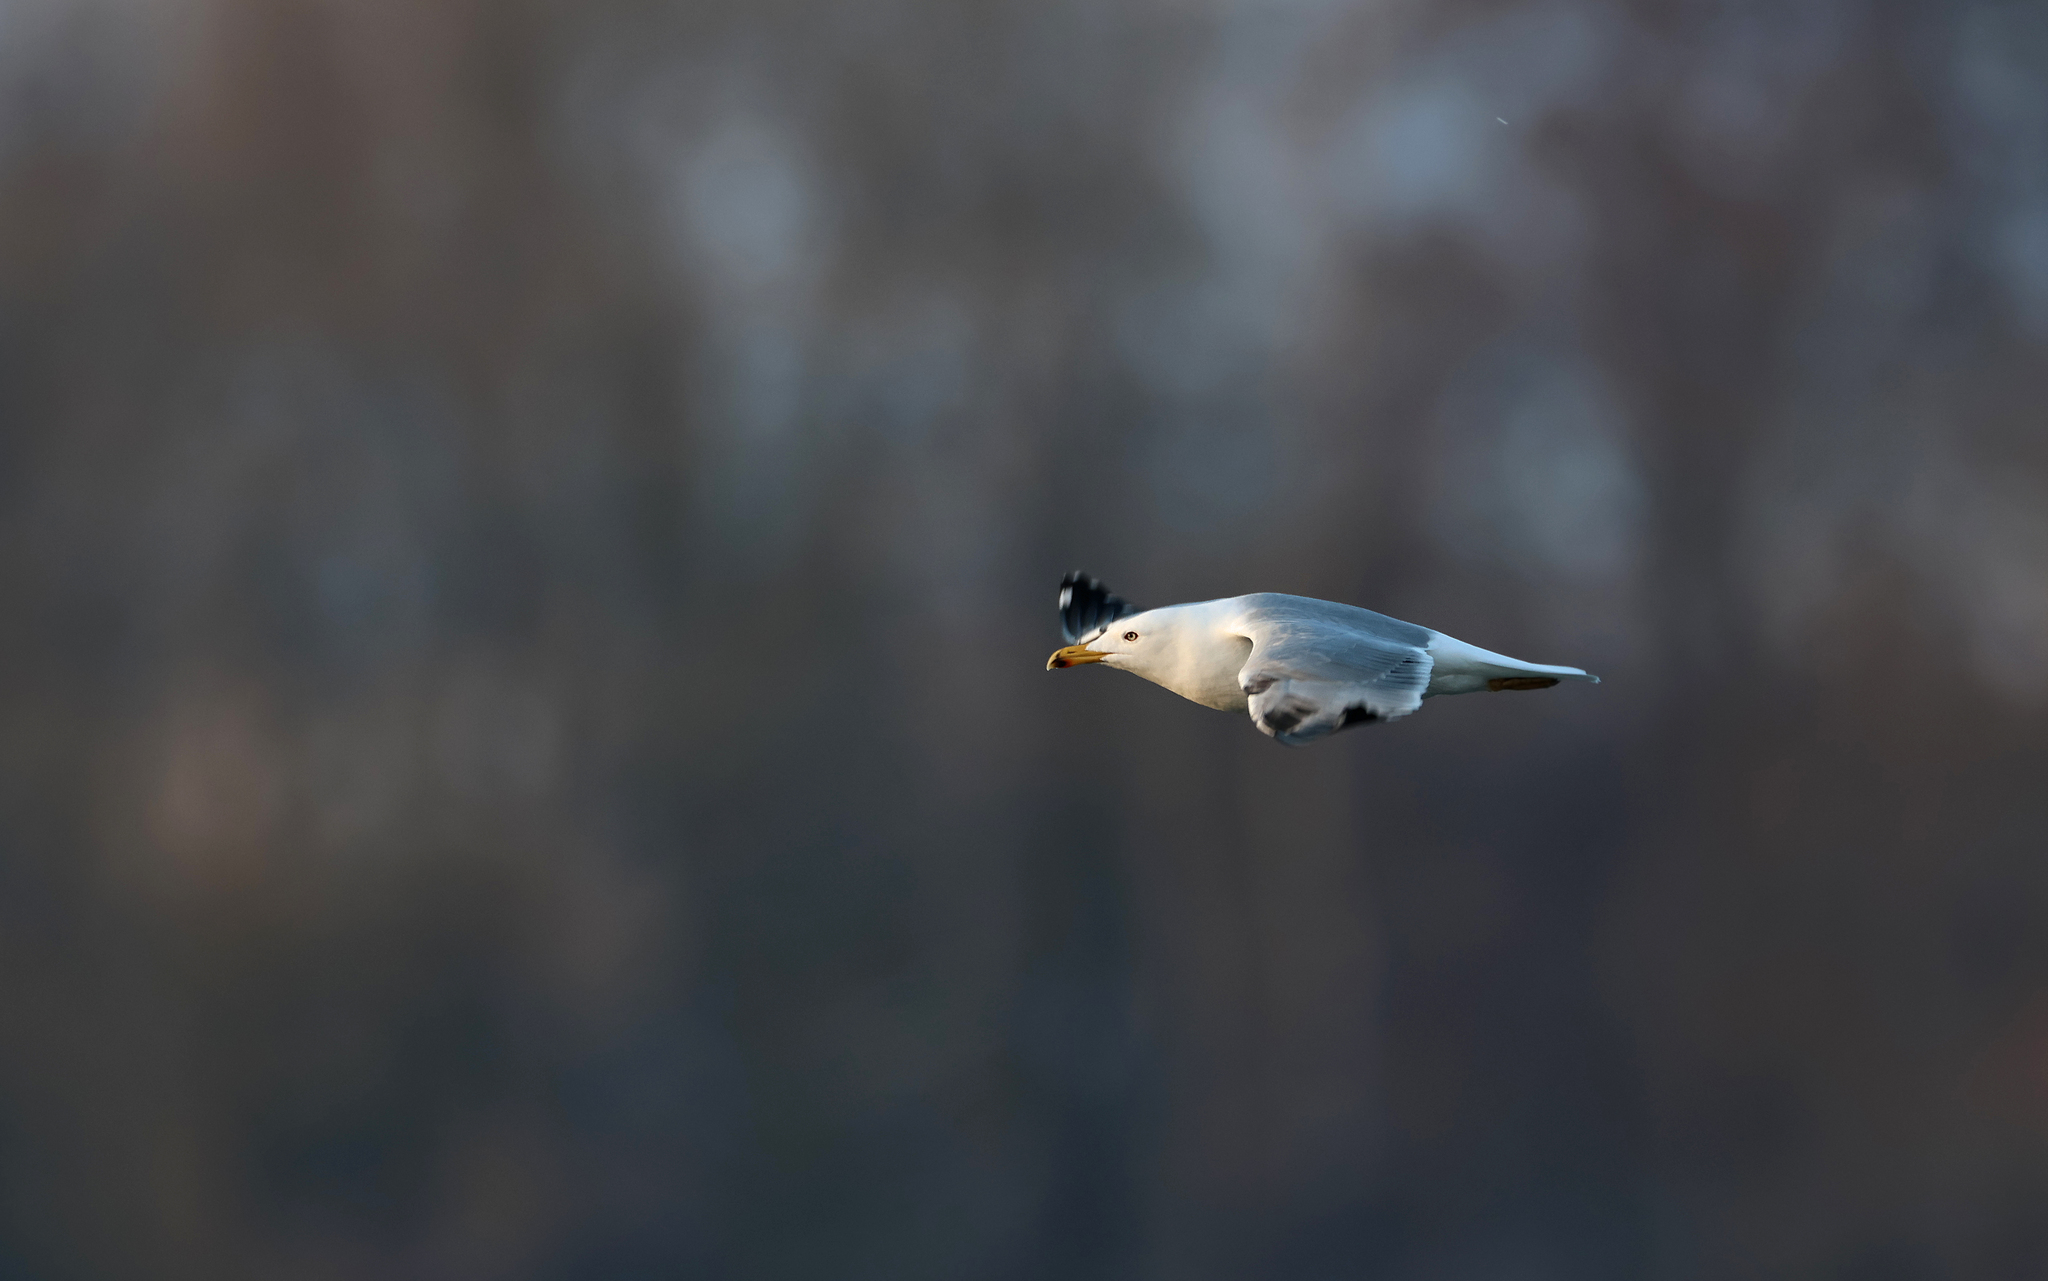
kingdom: Animalia
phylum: Chordata
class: Aves
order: Charadriiformes
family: Laridae
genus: Larus
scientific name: Larus michahellis
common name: Yellow-legged gull
